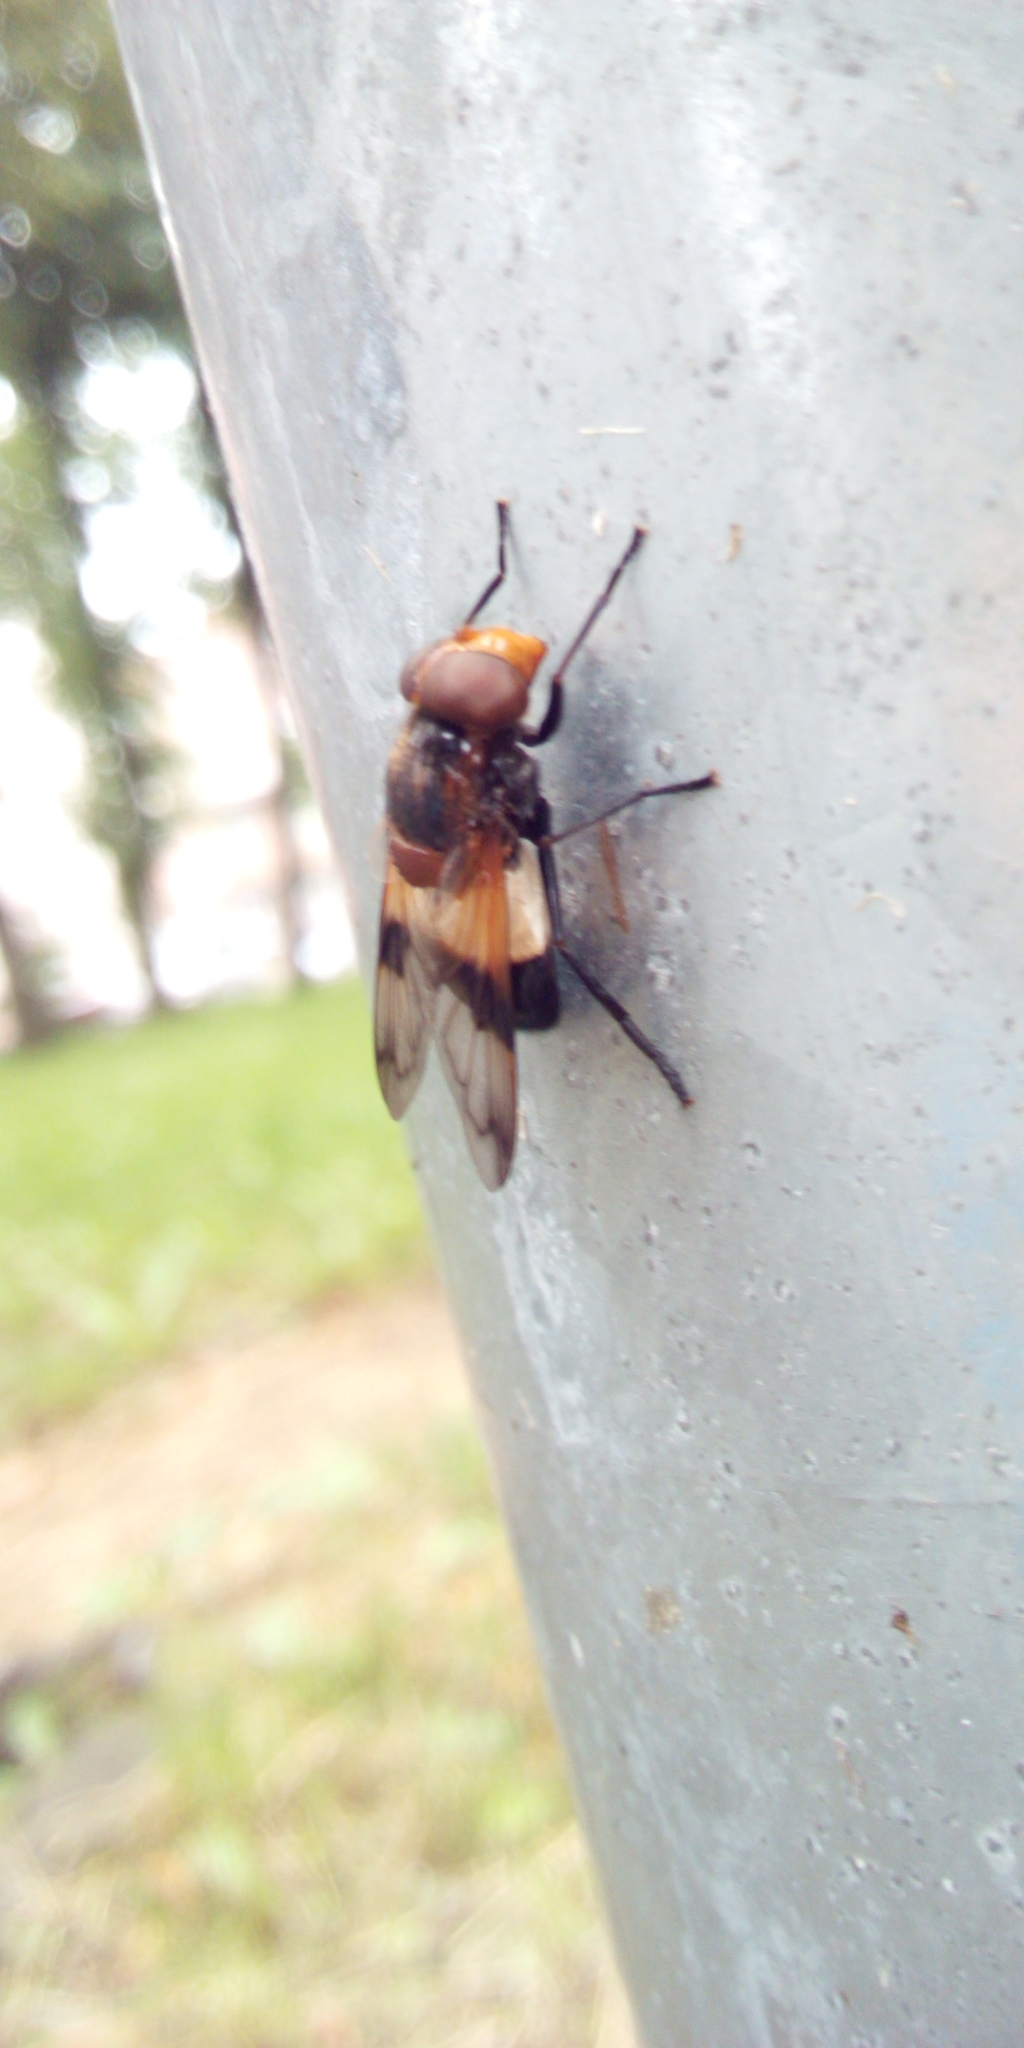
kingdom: Animalia
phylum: Arthropoda
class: Insecta
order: Diptera
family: Syrphidae
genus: Volucella
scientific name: Volucella pellucens
